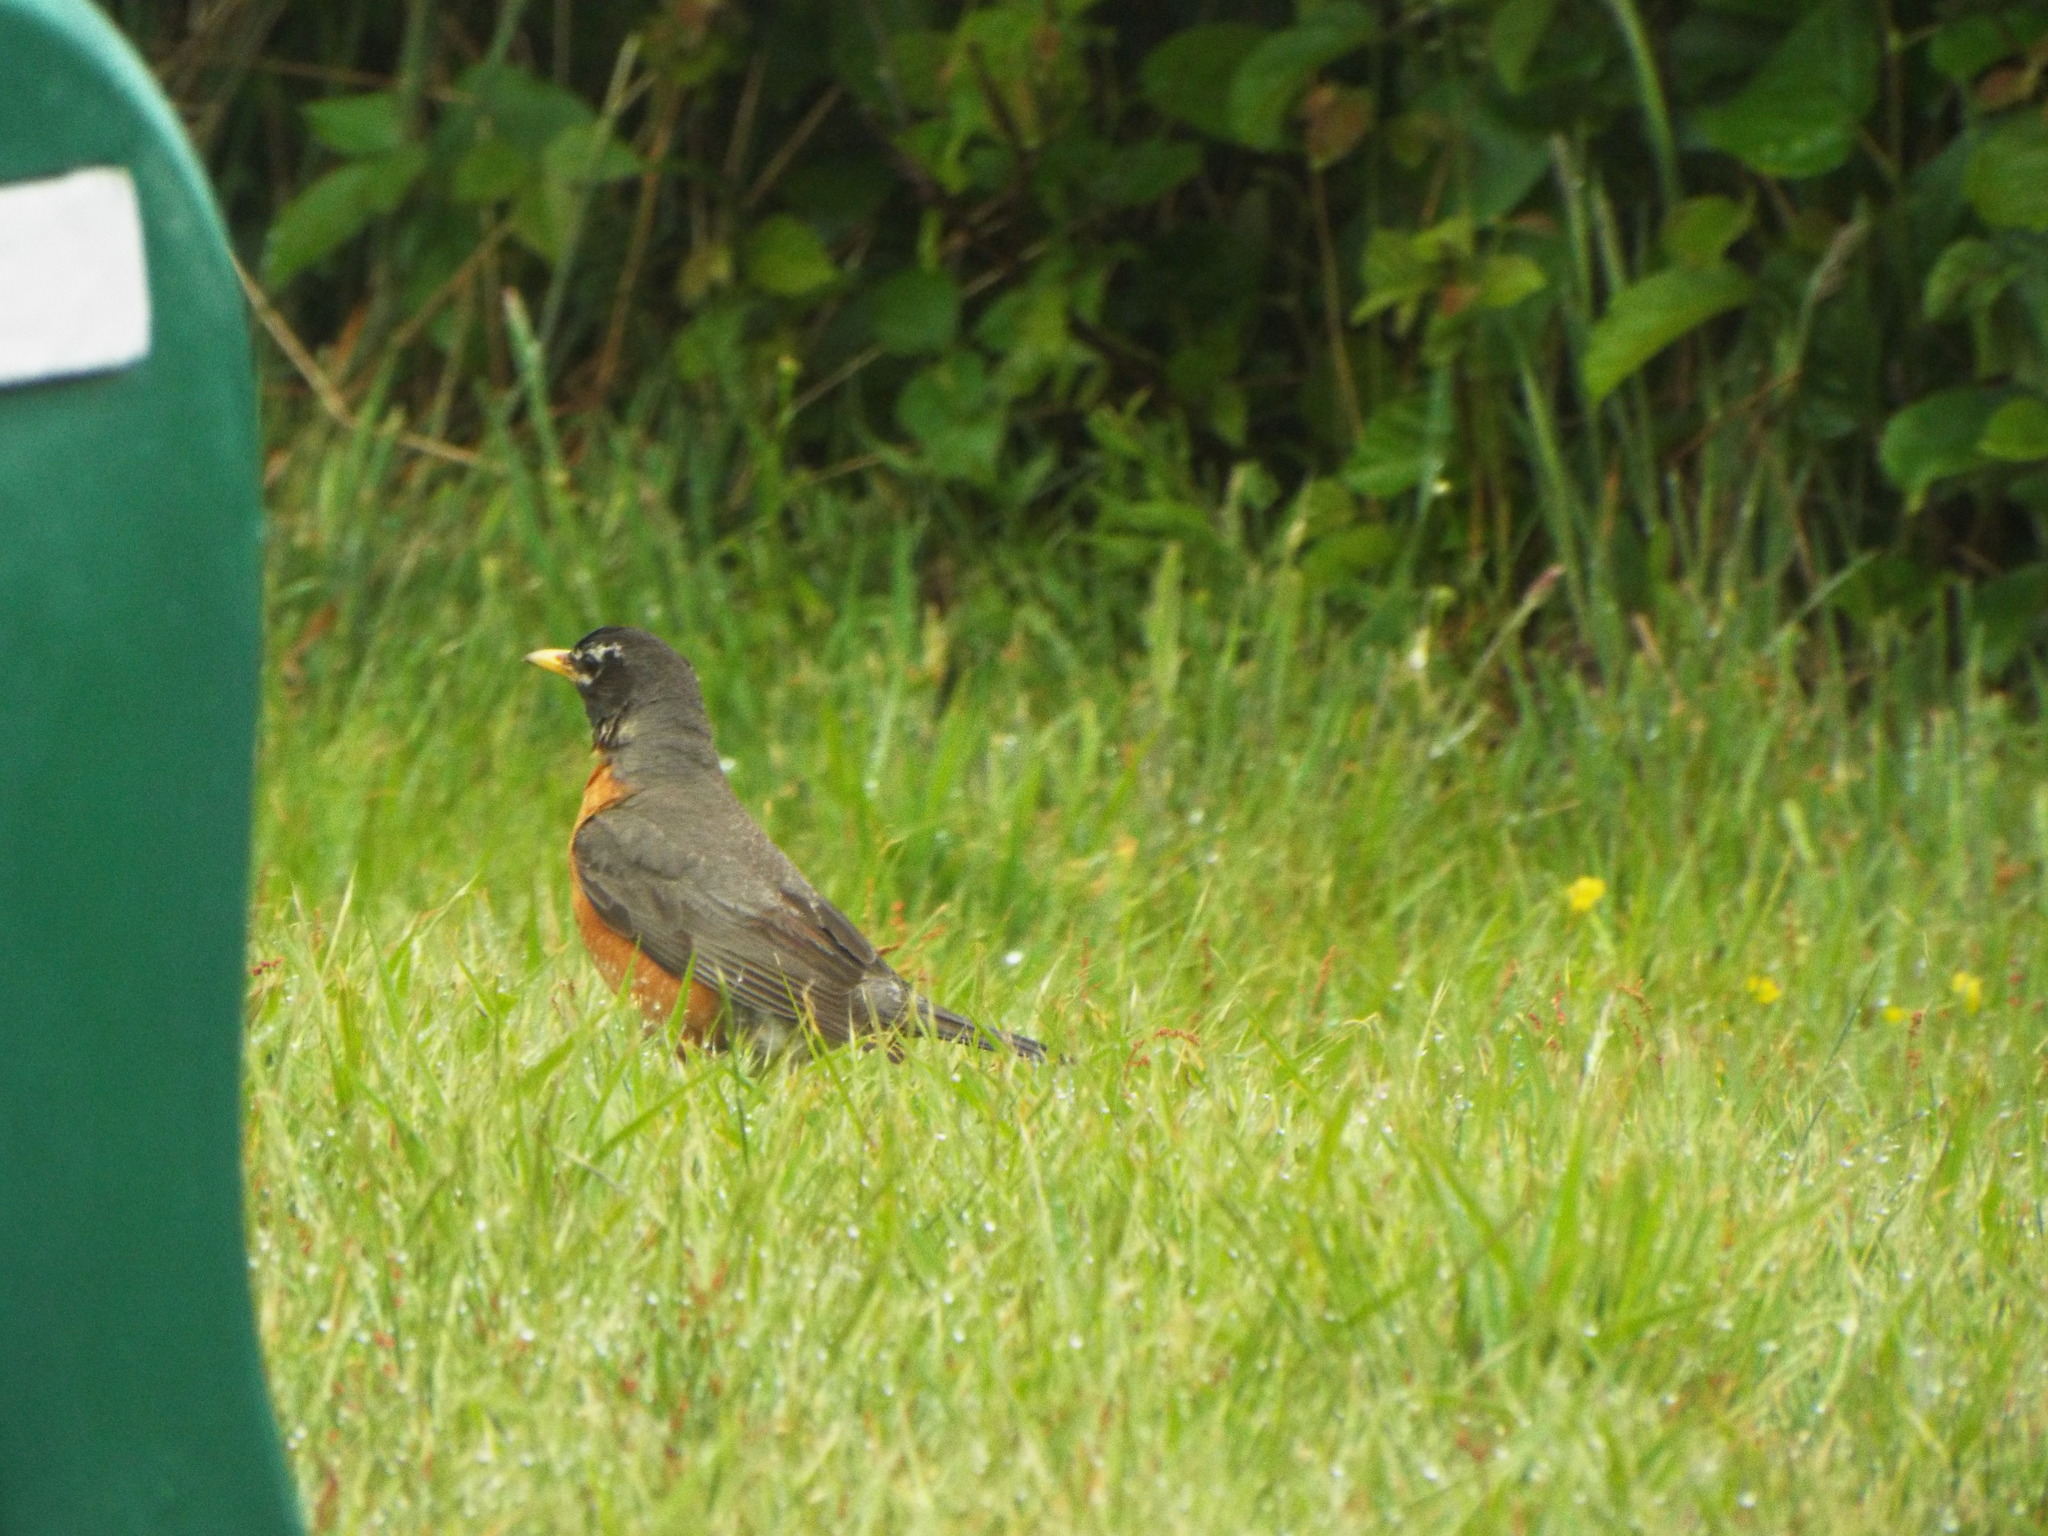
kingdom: Animalia
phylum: Chordata
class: Aves
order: Passeriformes
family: Turdidae
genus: Turdus
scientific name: Turdus migratorius
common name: American robin
